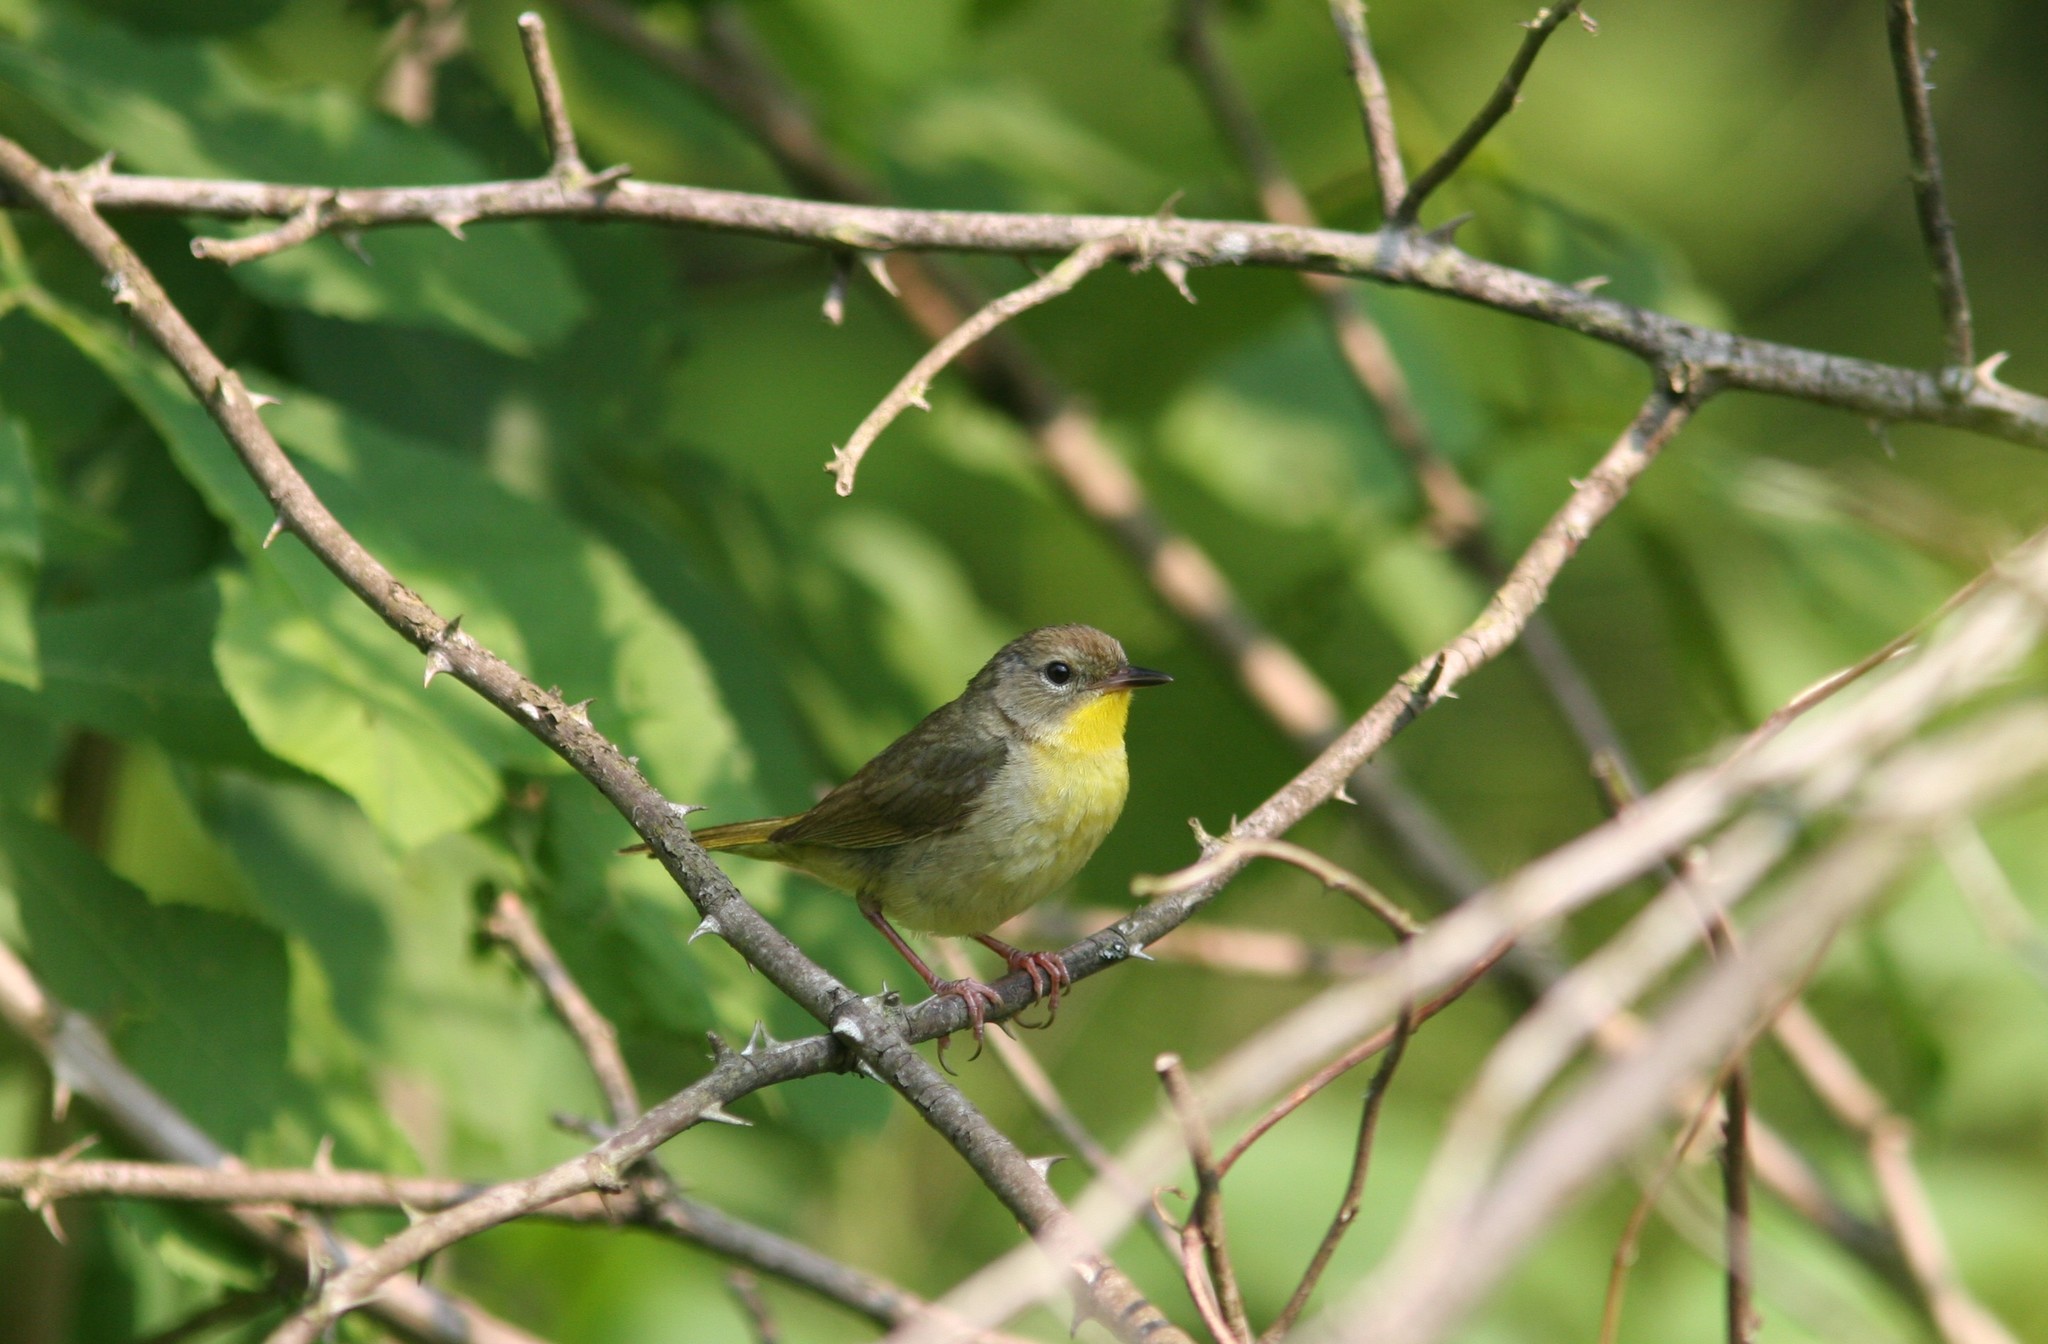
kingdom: Animalia
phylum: Chordata
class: Aves
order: Passeriformes
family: Parulidae
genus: Geothlypis
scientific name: Geothlypis trichas
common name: Common yellowthroat
